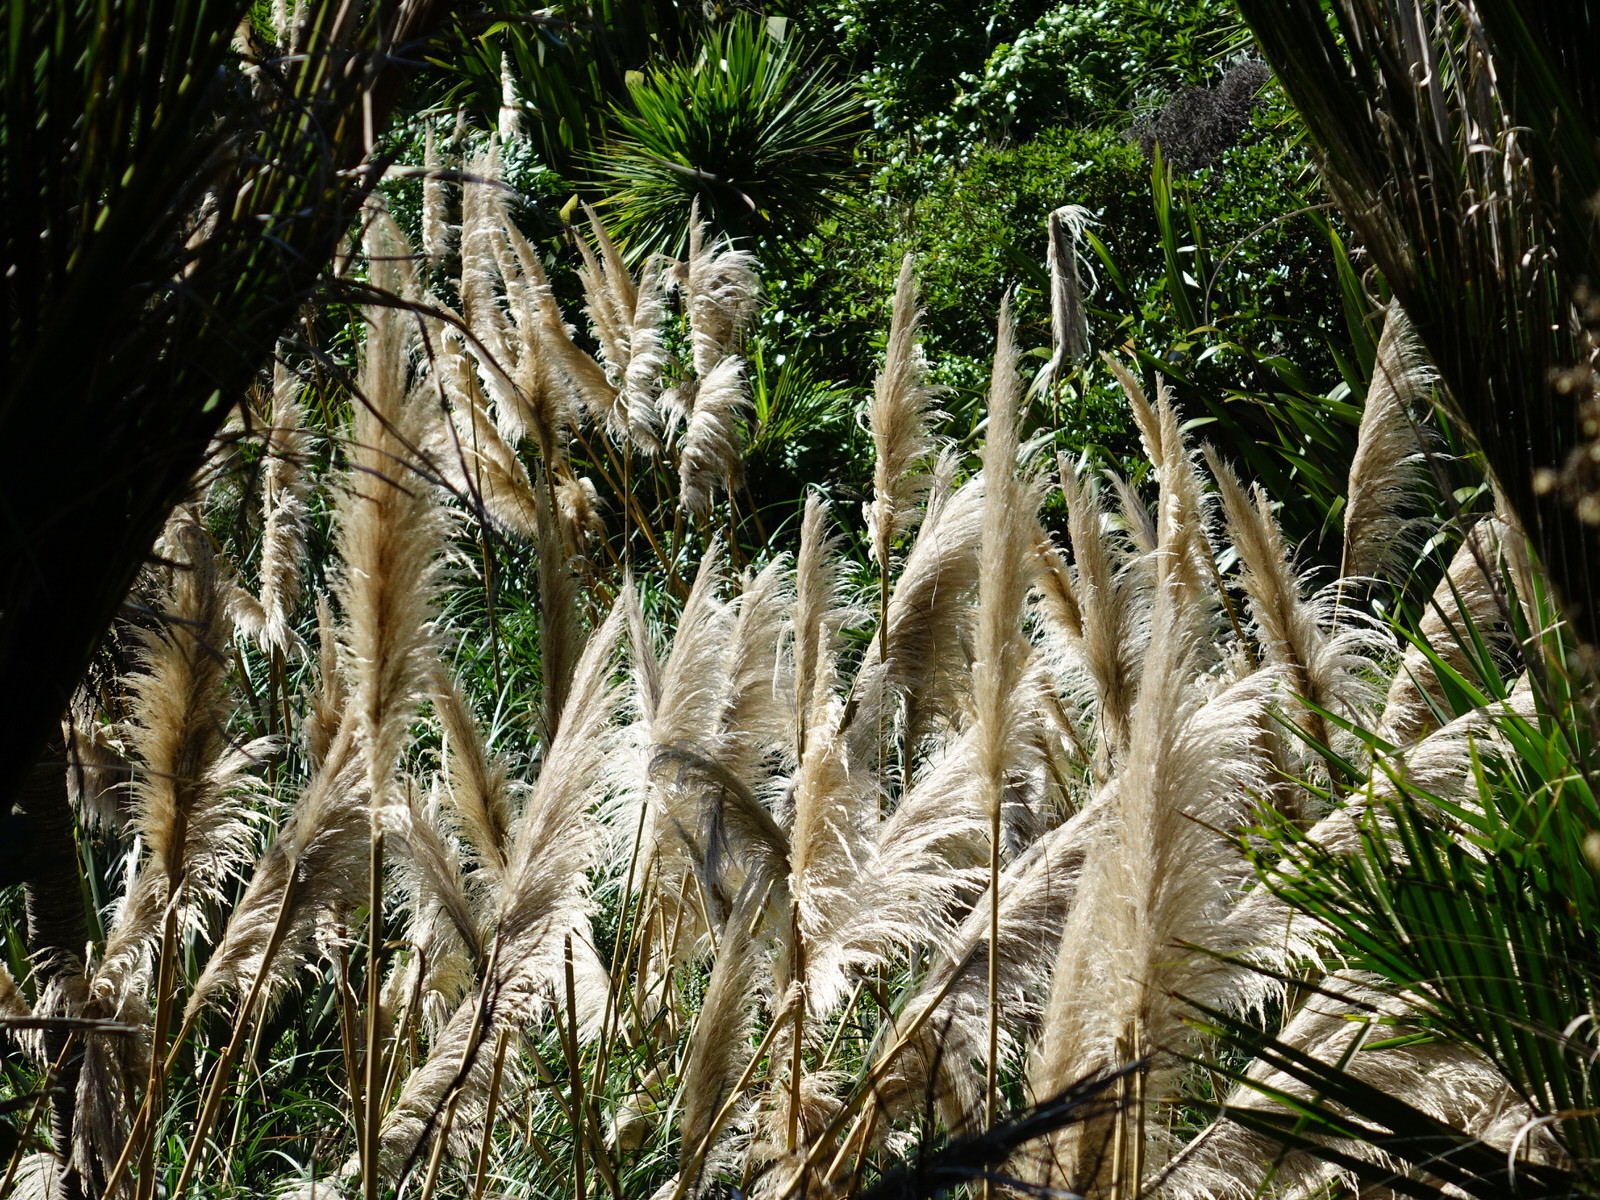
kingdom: Plantae
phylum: Tracheophyta
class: Liliopsida
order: Poales
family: Poaceae
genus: Cortaderia
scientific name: Cortaderia selloana
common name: Uruguayan pampas grass
